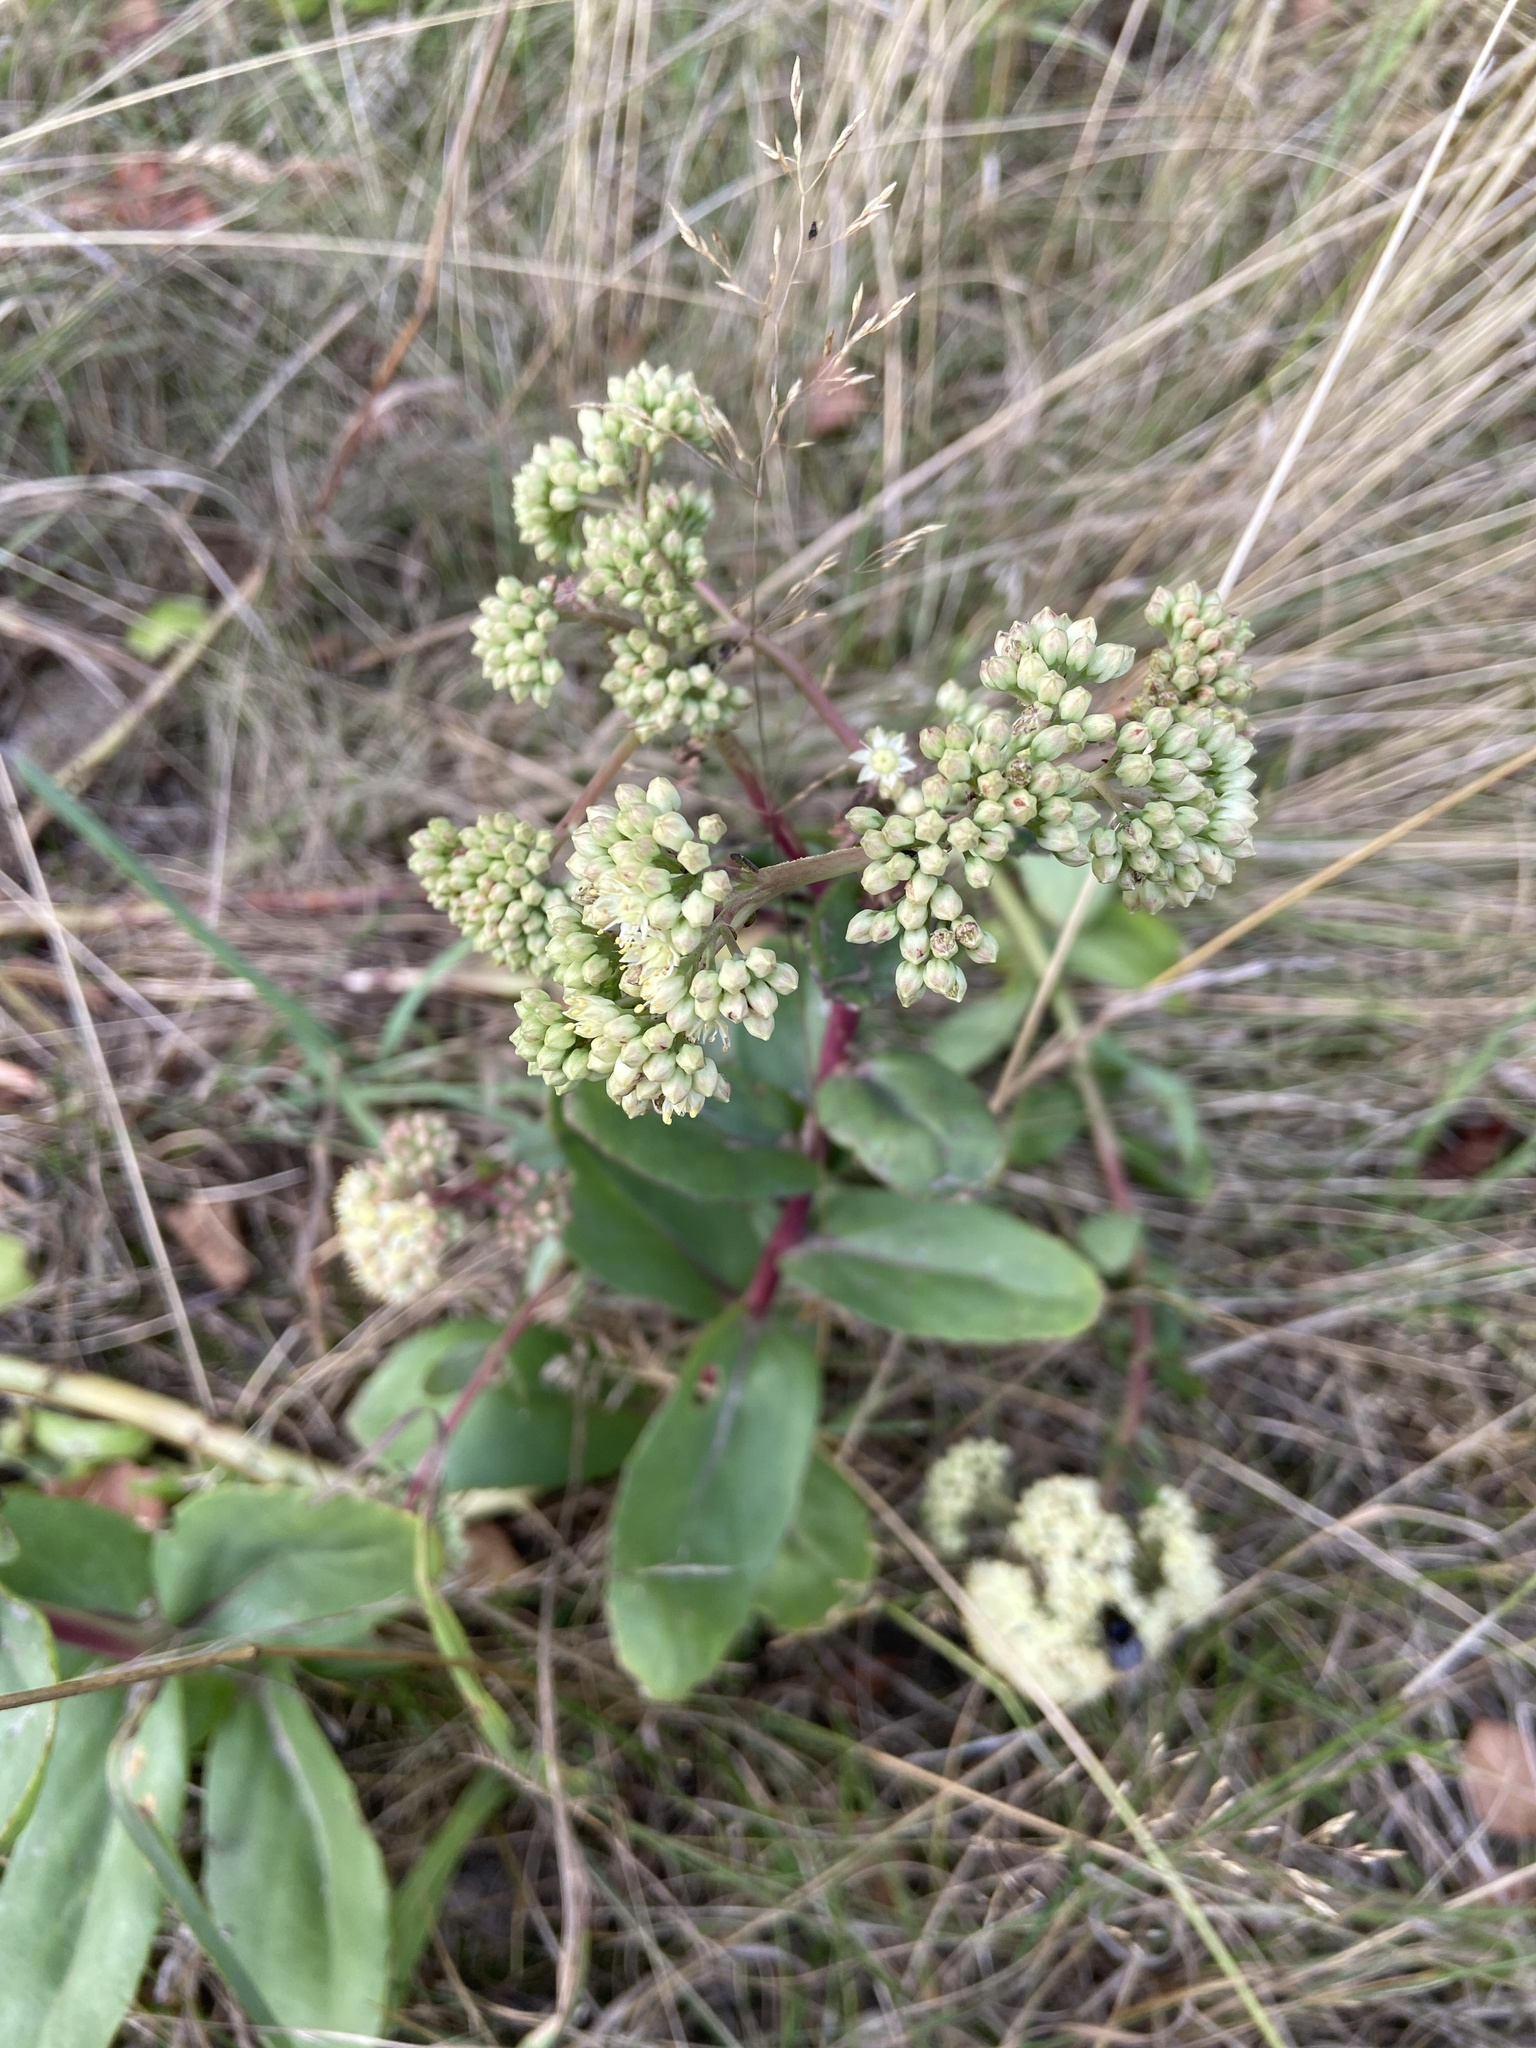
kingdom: Plantae
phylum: Tracheophyta
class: Magnoliopsida
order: Saxifragales
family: Crassulaceae
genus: Hylotelephium
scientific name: Hylotelephium maximum
